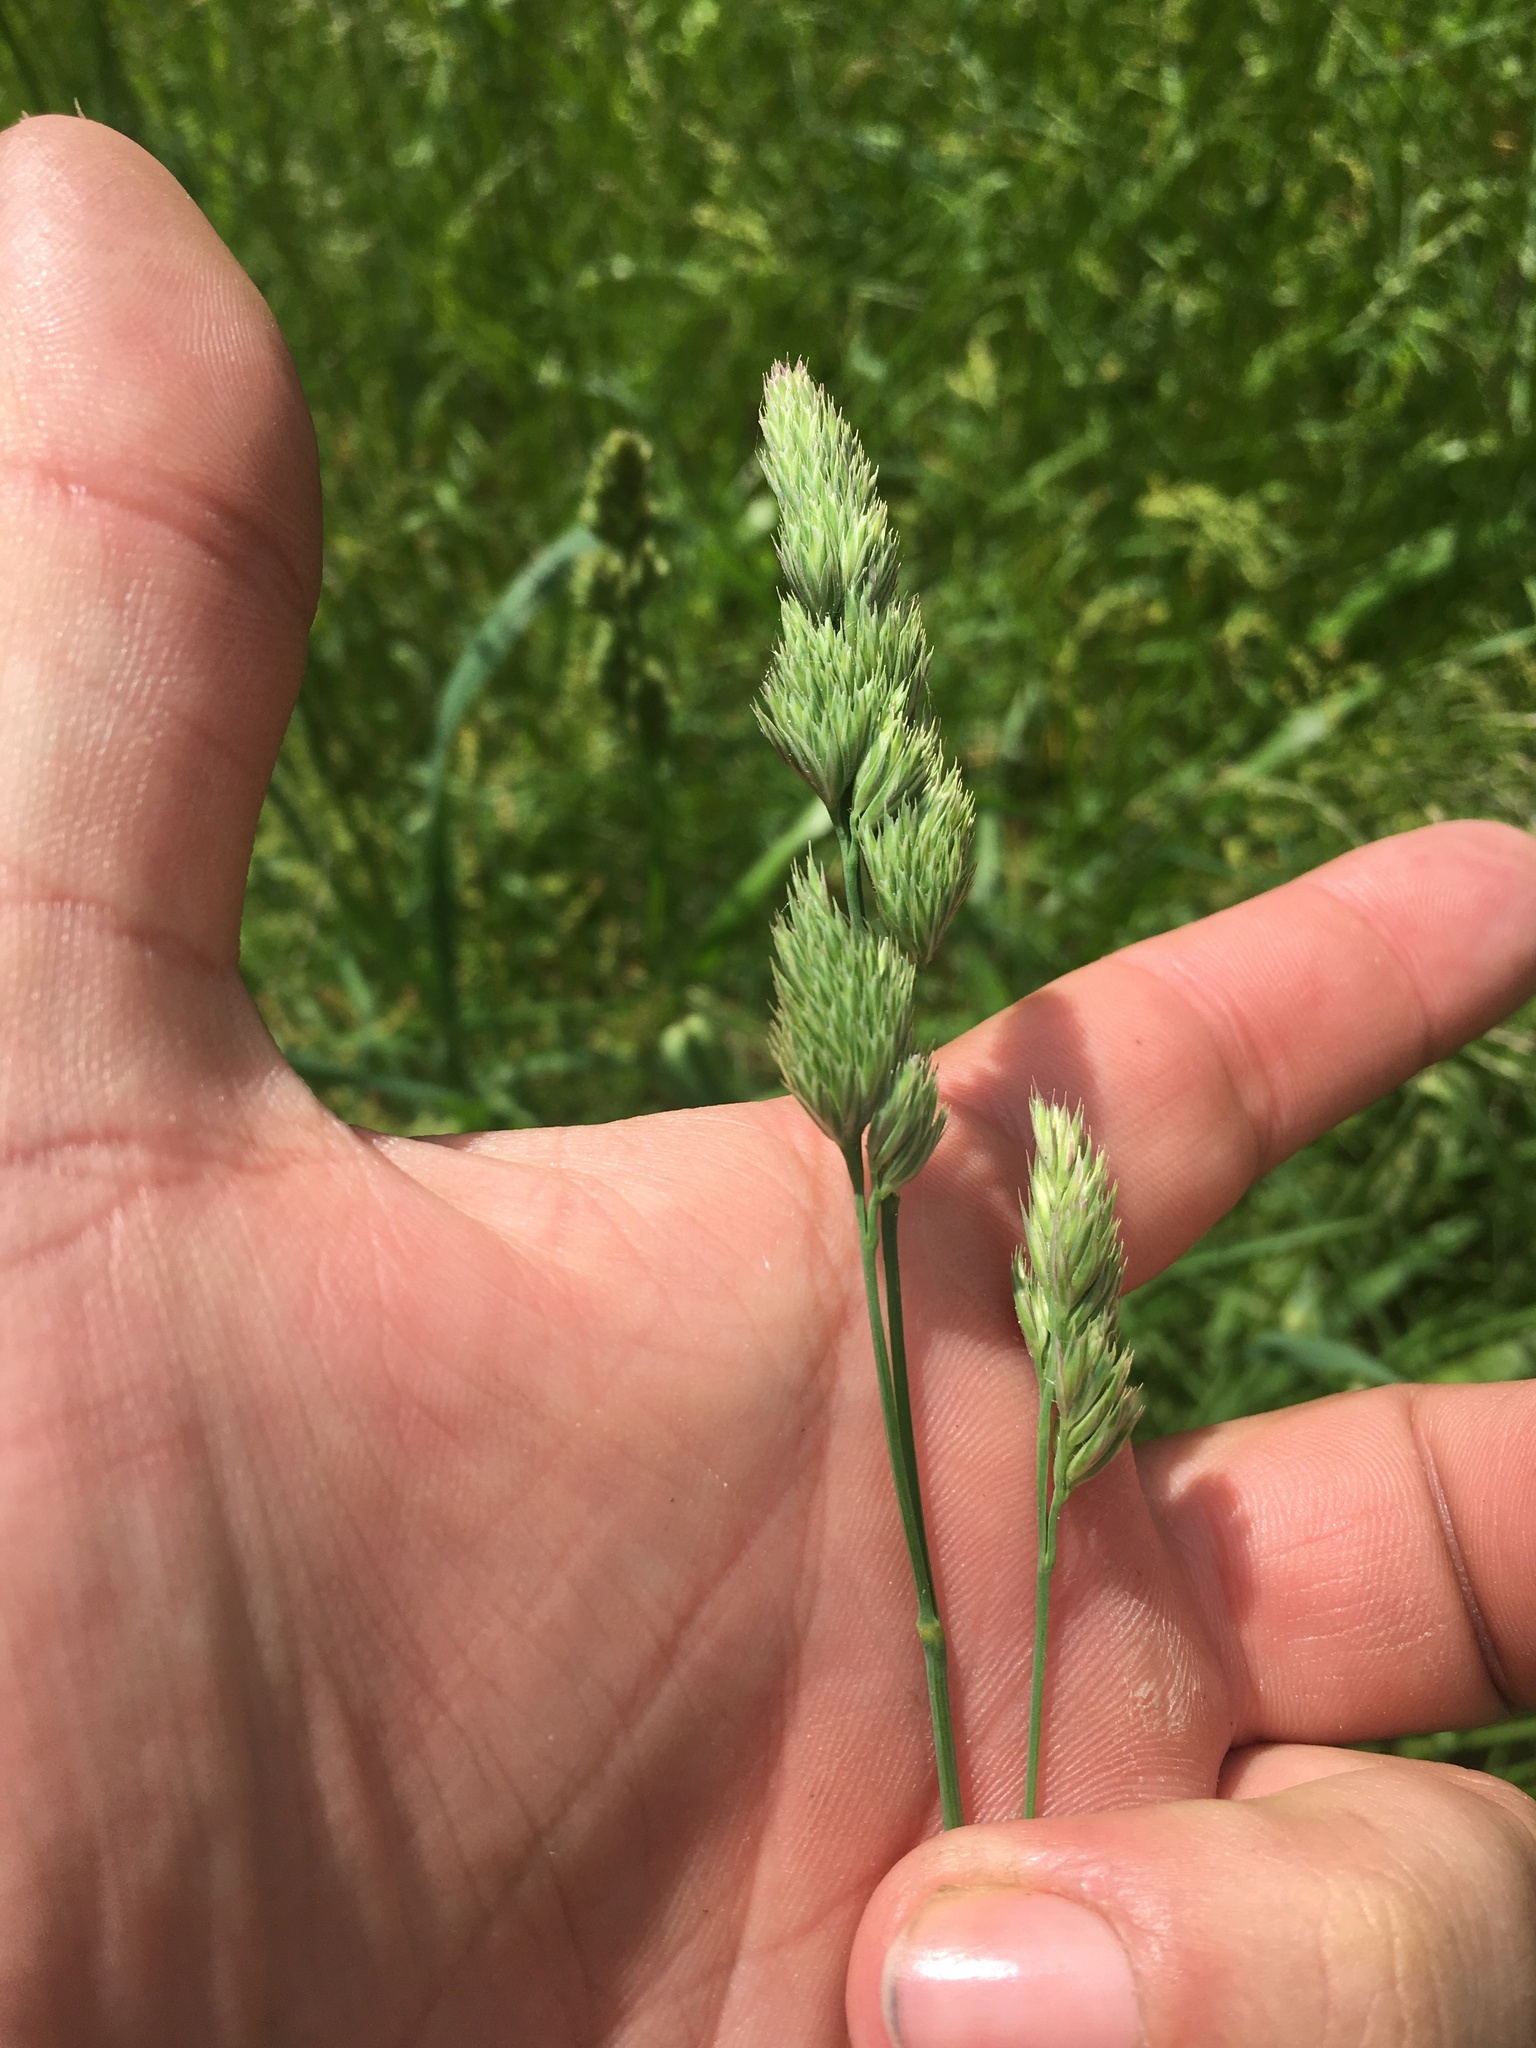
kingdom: Plantae
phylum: Tracheophyta
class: Liliopsida
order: Poales
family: Poaceae
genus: Dactylis
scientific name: Dactylis glomerata
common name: Orchardgrass
